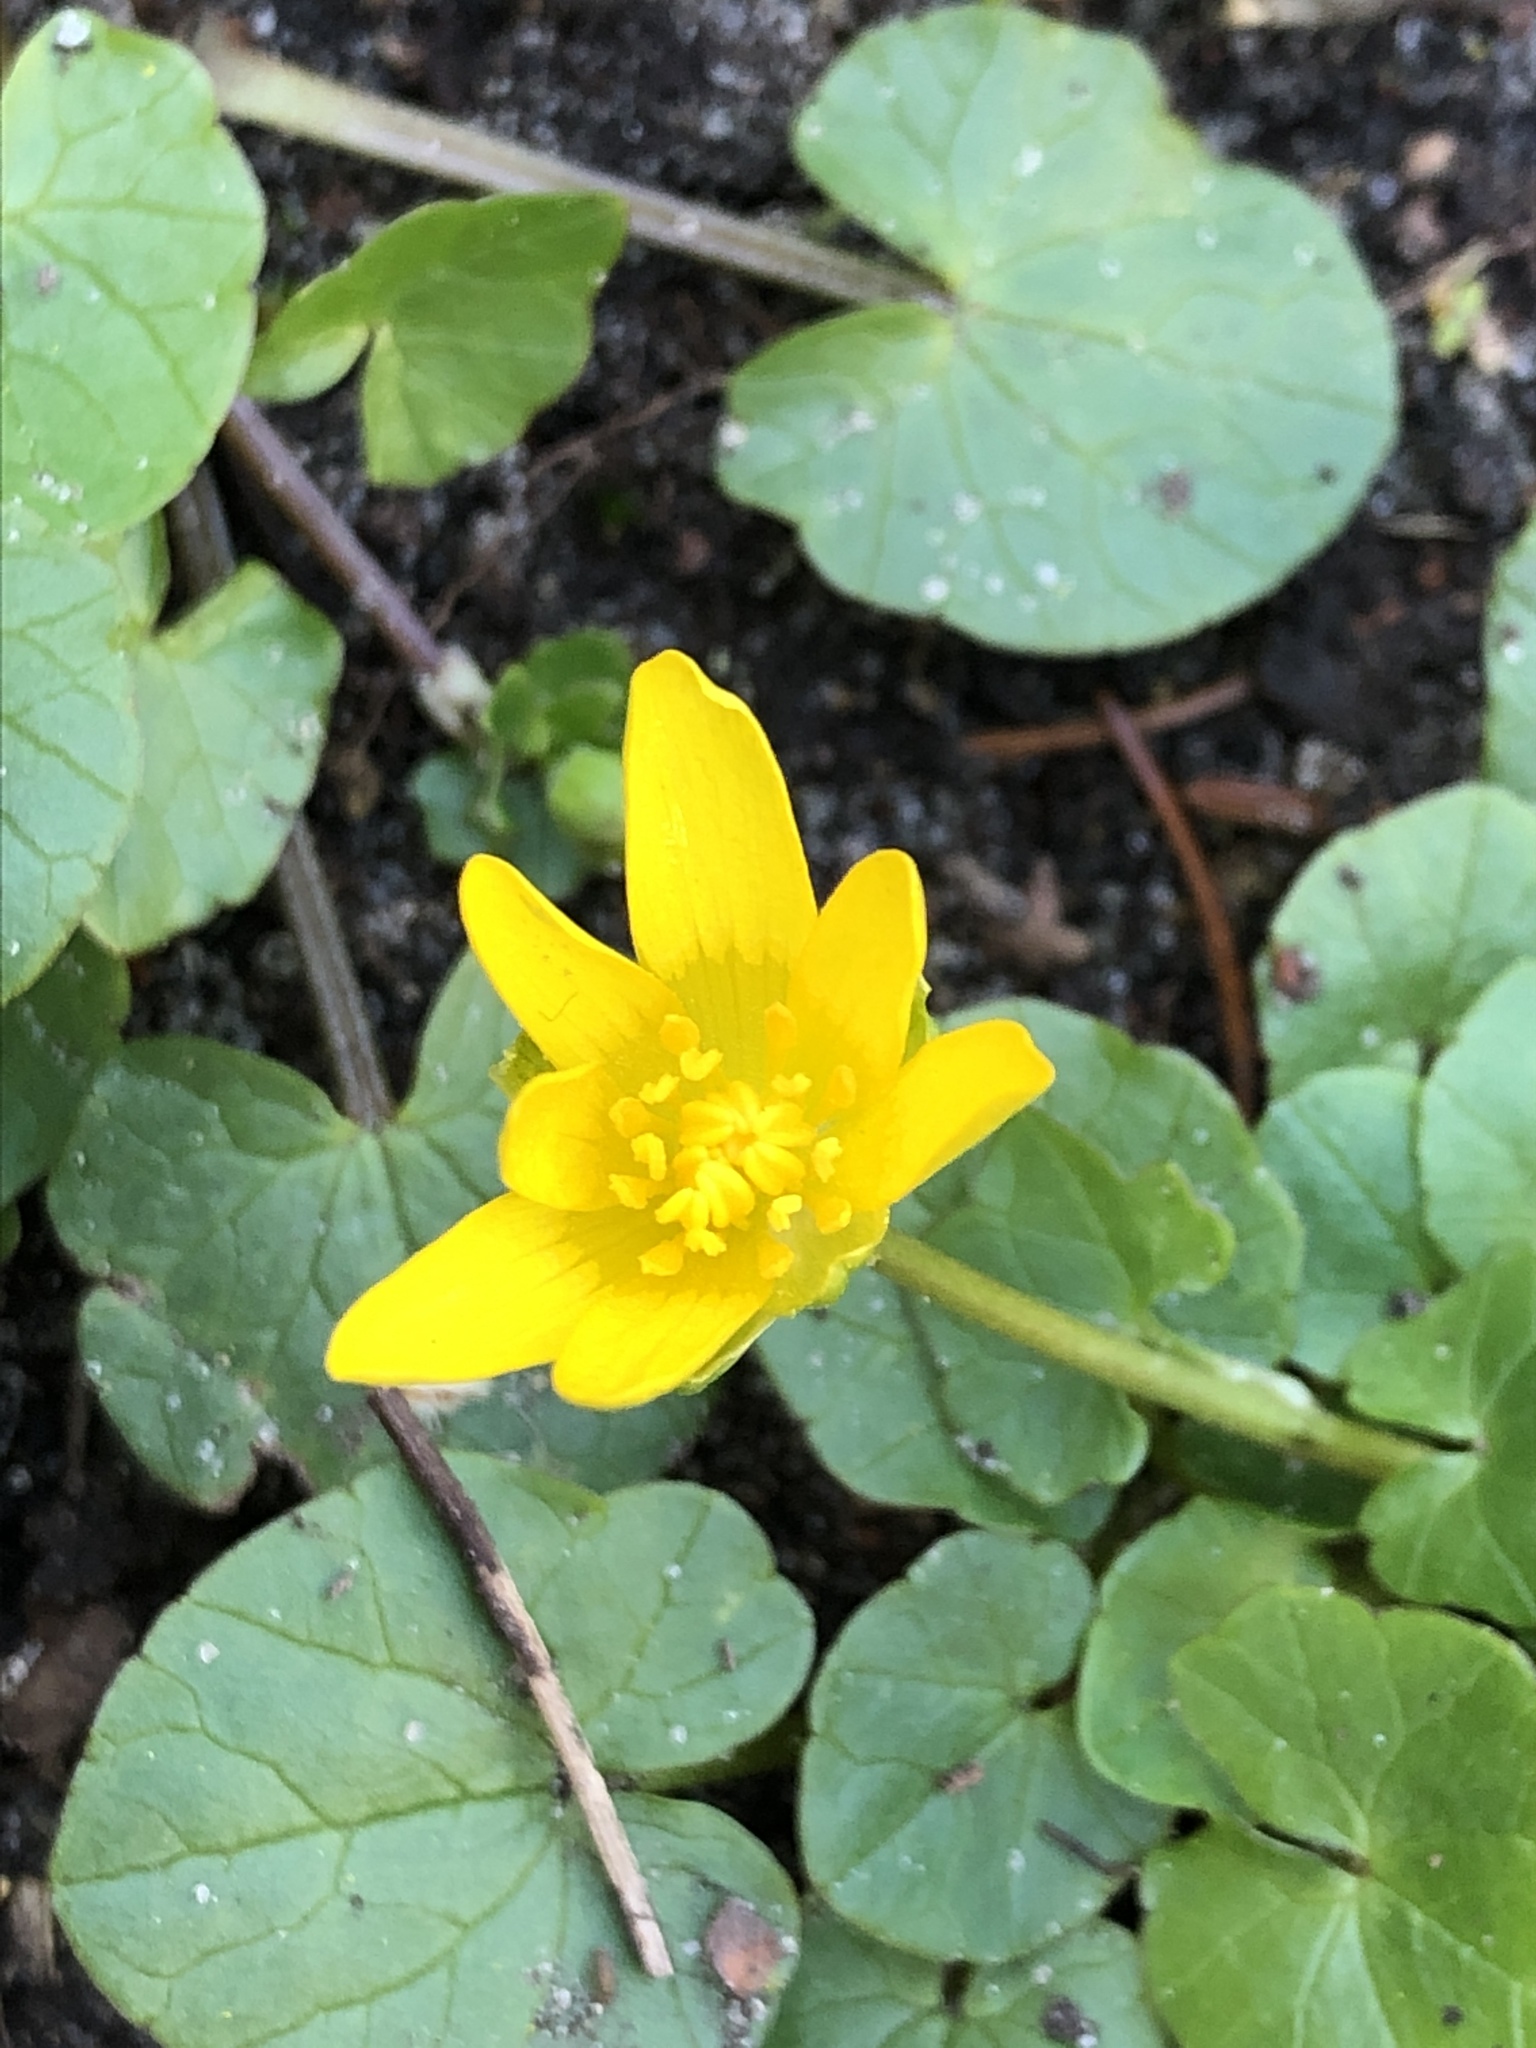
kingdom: Plantae
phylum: Tracheophyta
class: Magnoliopsida
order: Ranunculales
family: Ranunculaceae
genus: Ficaria
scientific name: Ficaria verna
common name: Lesser celandine
